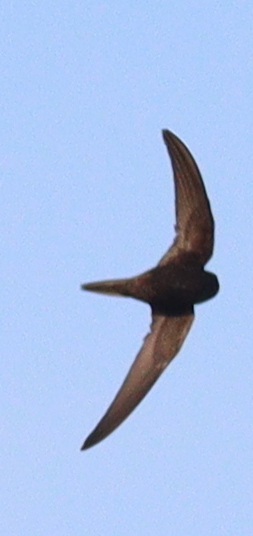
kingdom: Animalia
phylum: Chordata
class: Aves
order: Apodiformes
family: Apodidae
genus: Apus
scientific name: Apus apus
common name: Common swift
